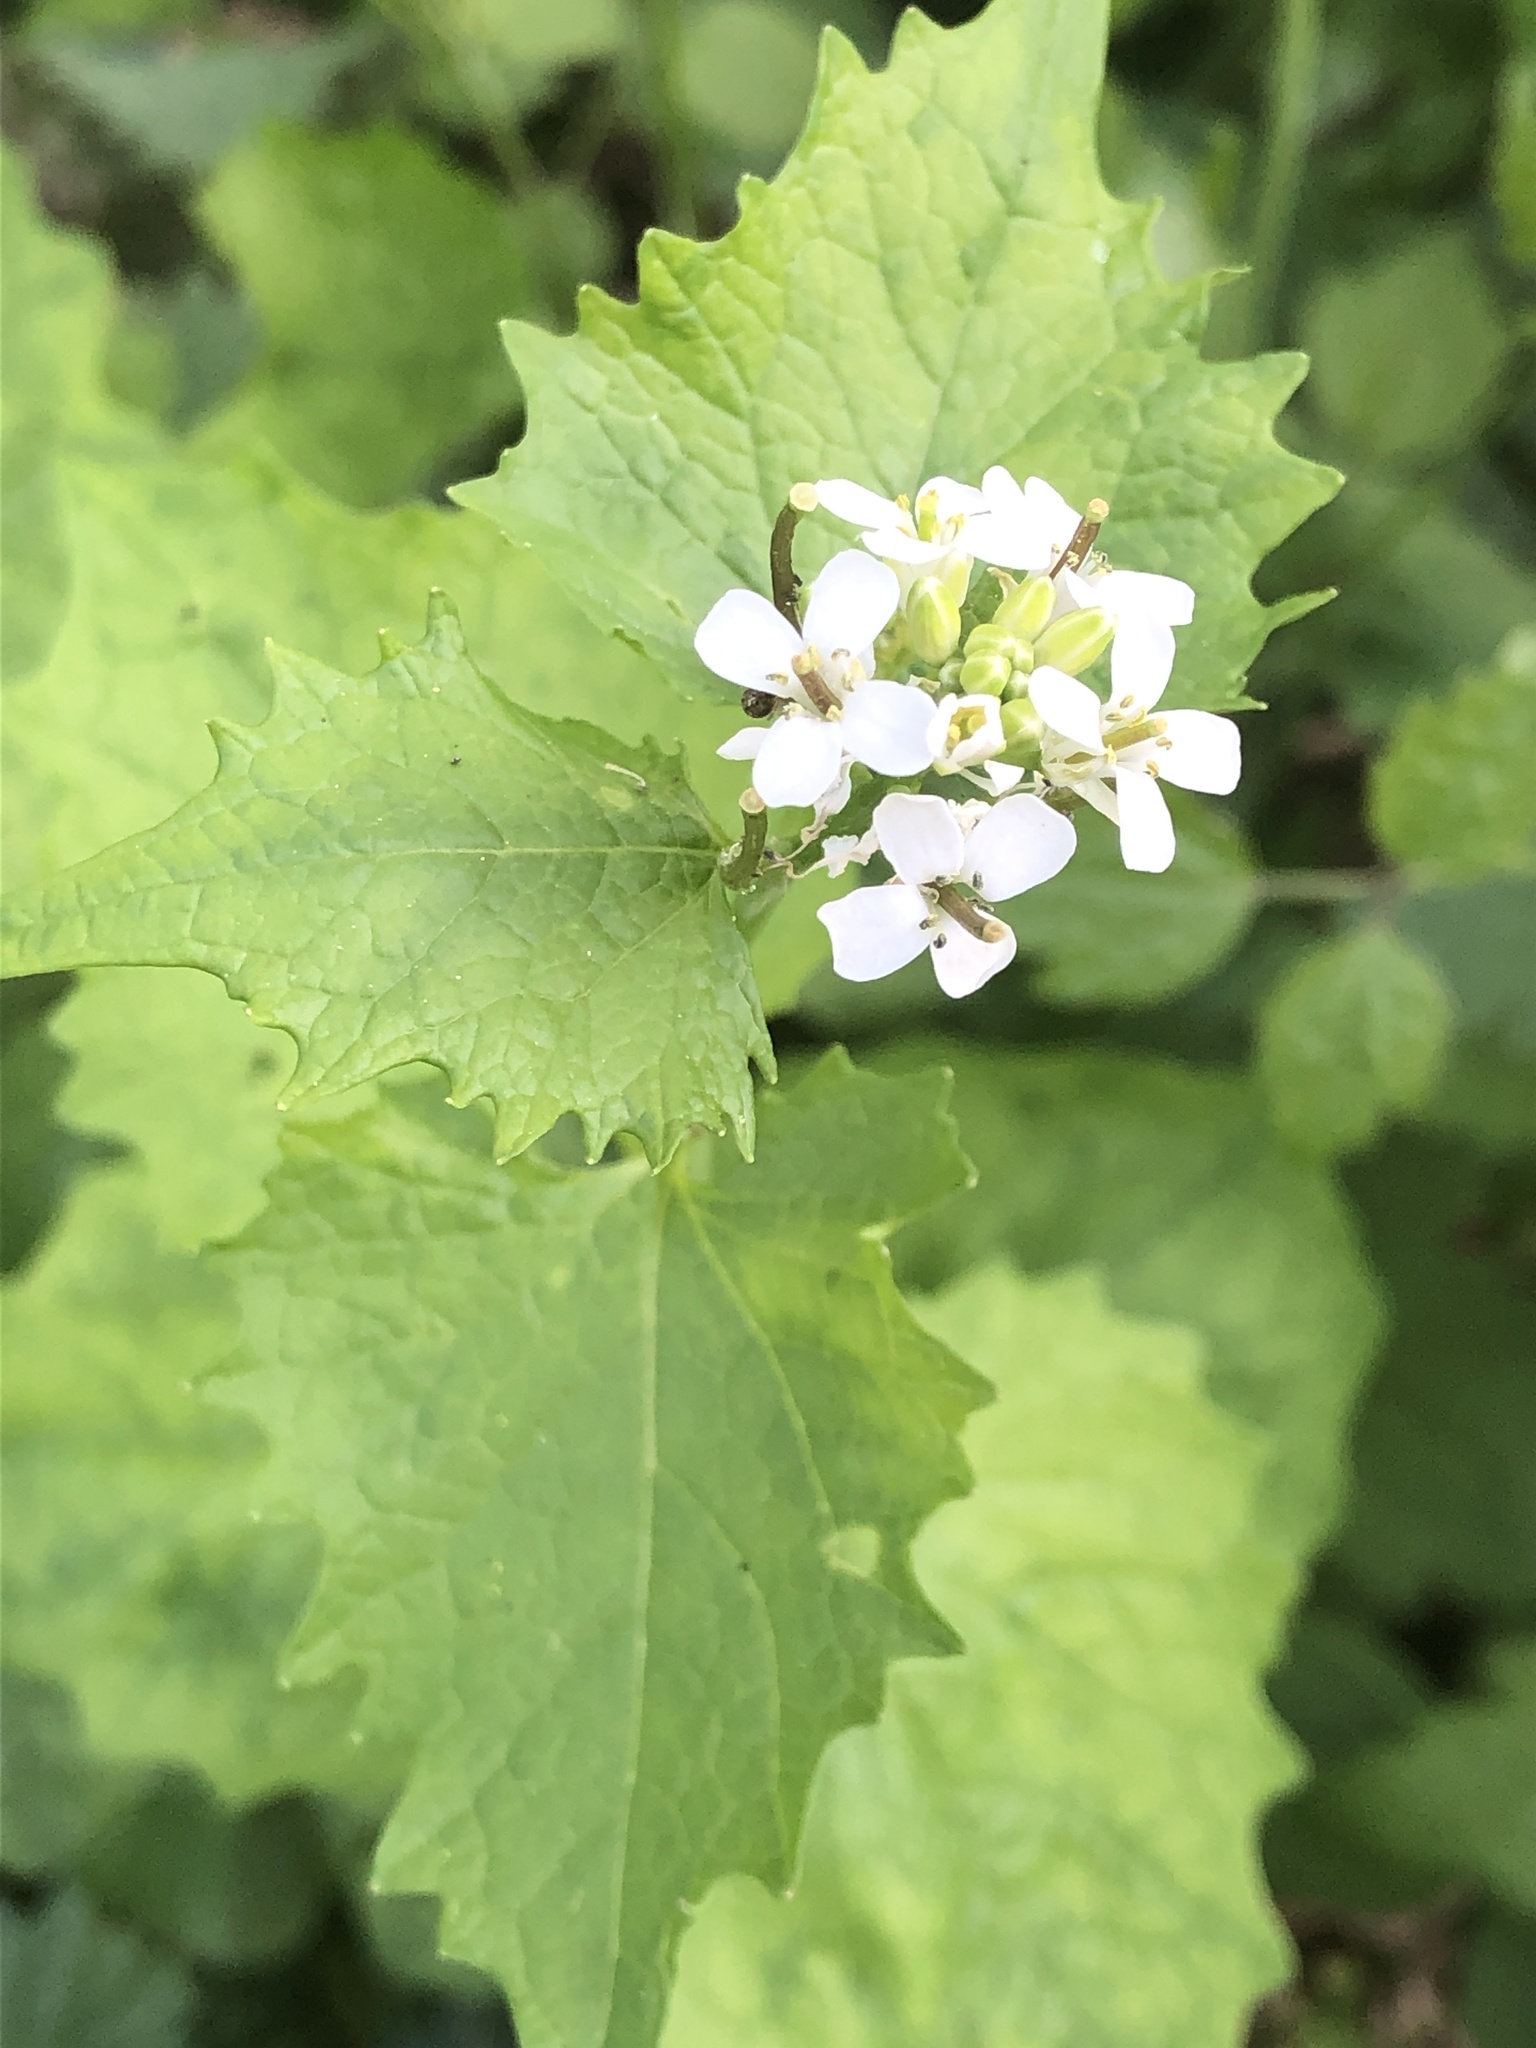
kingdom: Plantae
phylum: Tracheophyta
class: Magnoliopsida
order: Brassicales
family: Brassicaceae
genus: Alliaria
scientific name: Alliaria petiolata
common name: Garlic mustard
